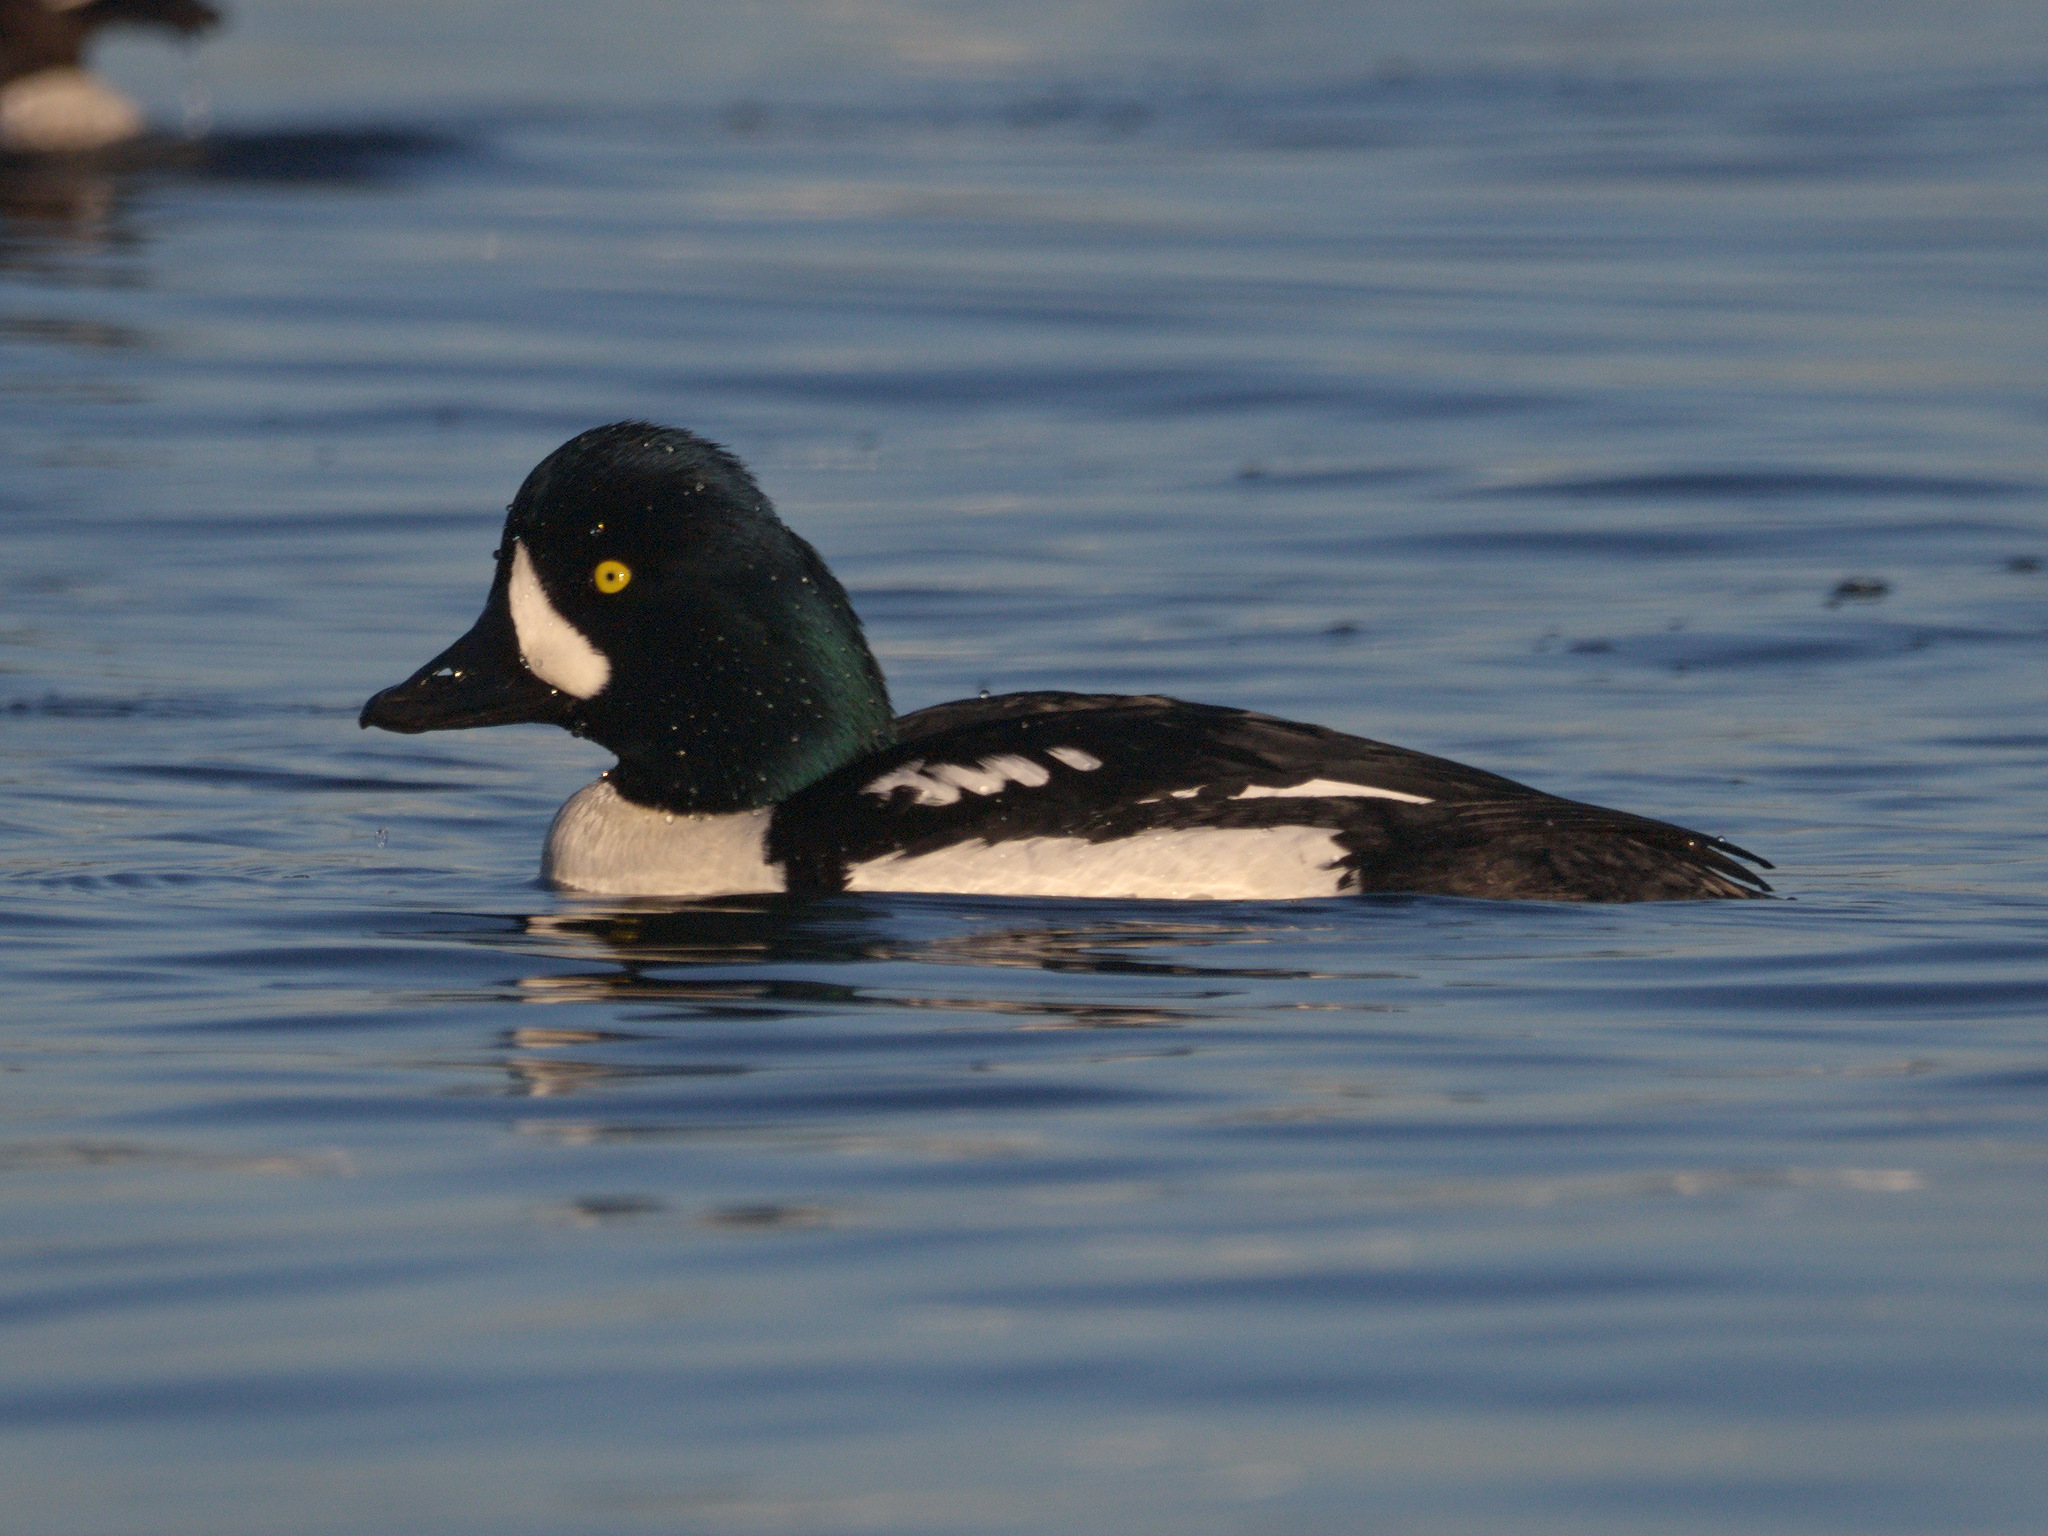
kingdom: Animalia
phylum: Chordata
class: Aves
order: Anseriformes
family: Anatidae
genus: Bucephala
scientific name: Bucephala islandica
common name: Barrow's goldeneye
